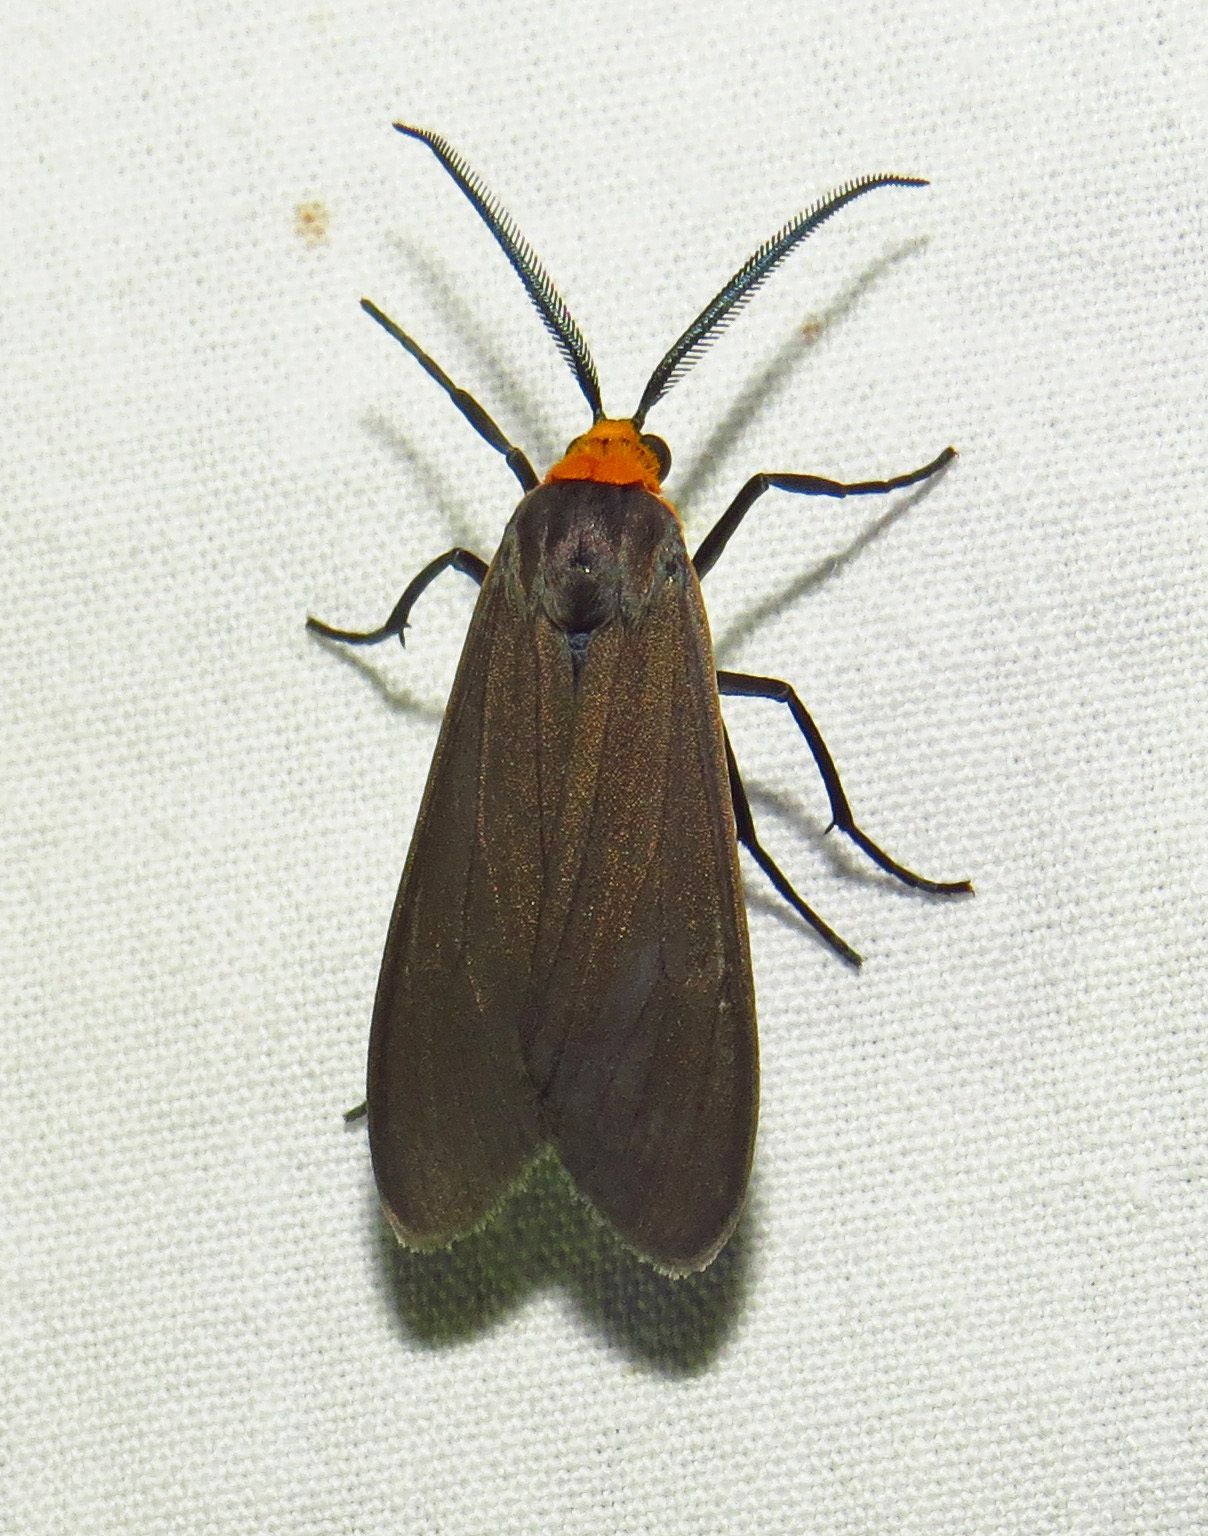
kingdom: Animalia
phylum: Arthropoda
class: Insecta
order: Lepidoptera
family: Erebidae
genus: Cisseps
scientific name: Cisseps fulvicollis
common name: Yellow-collared scape moth
